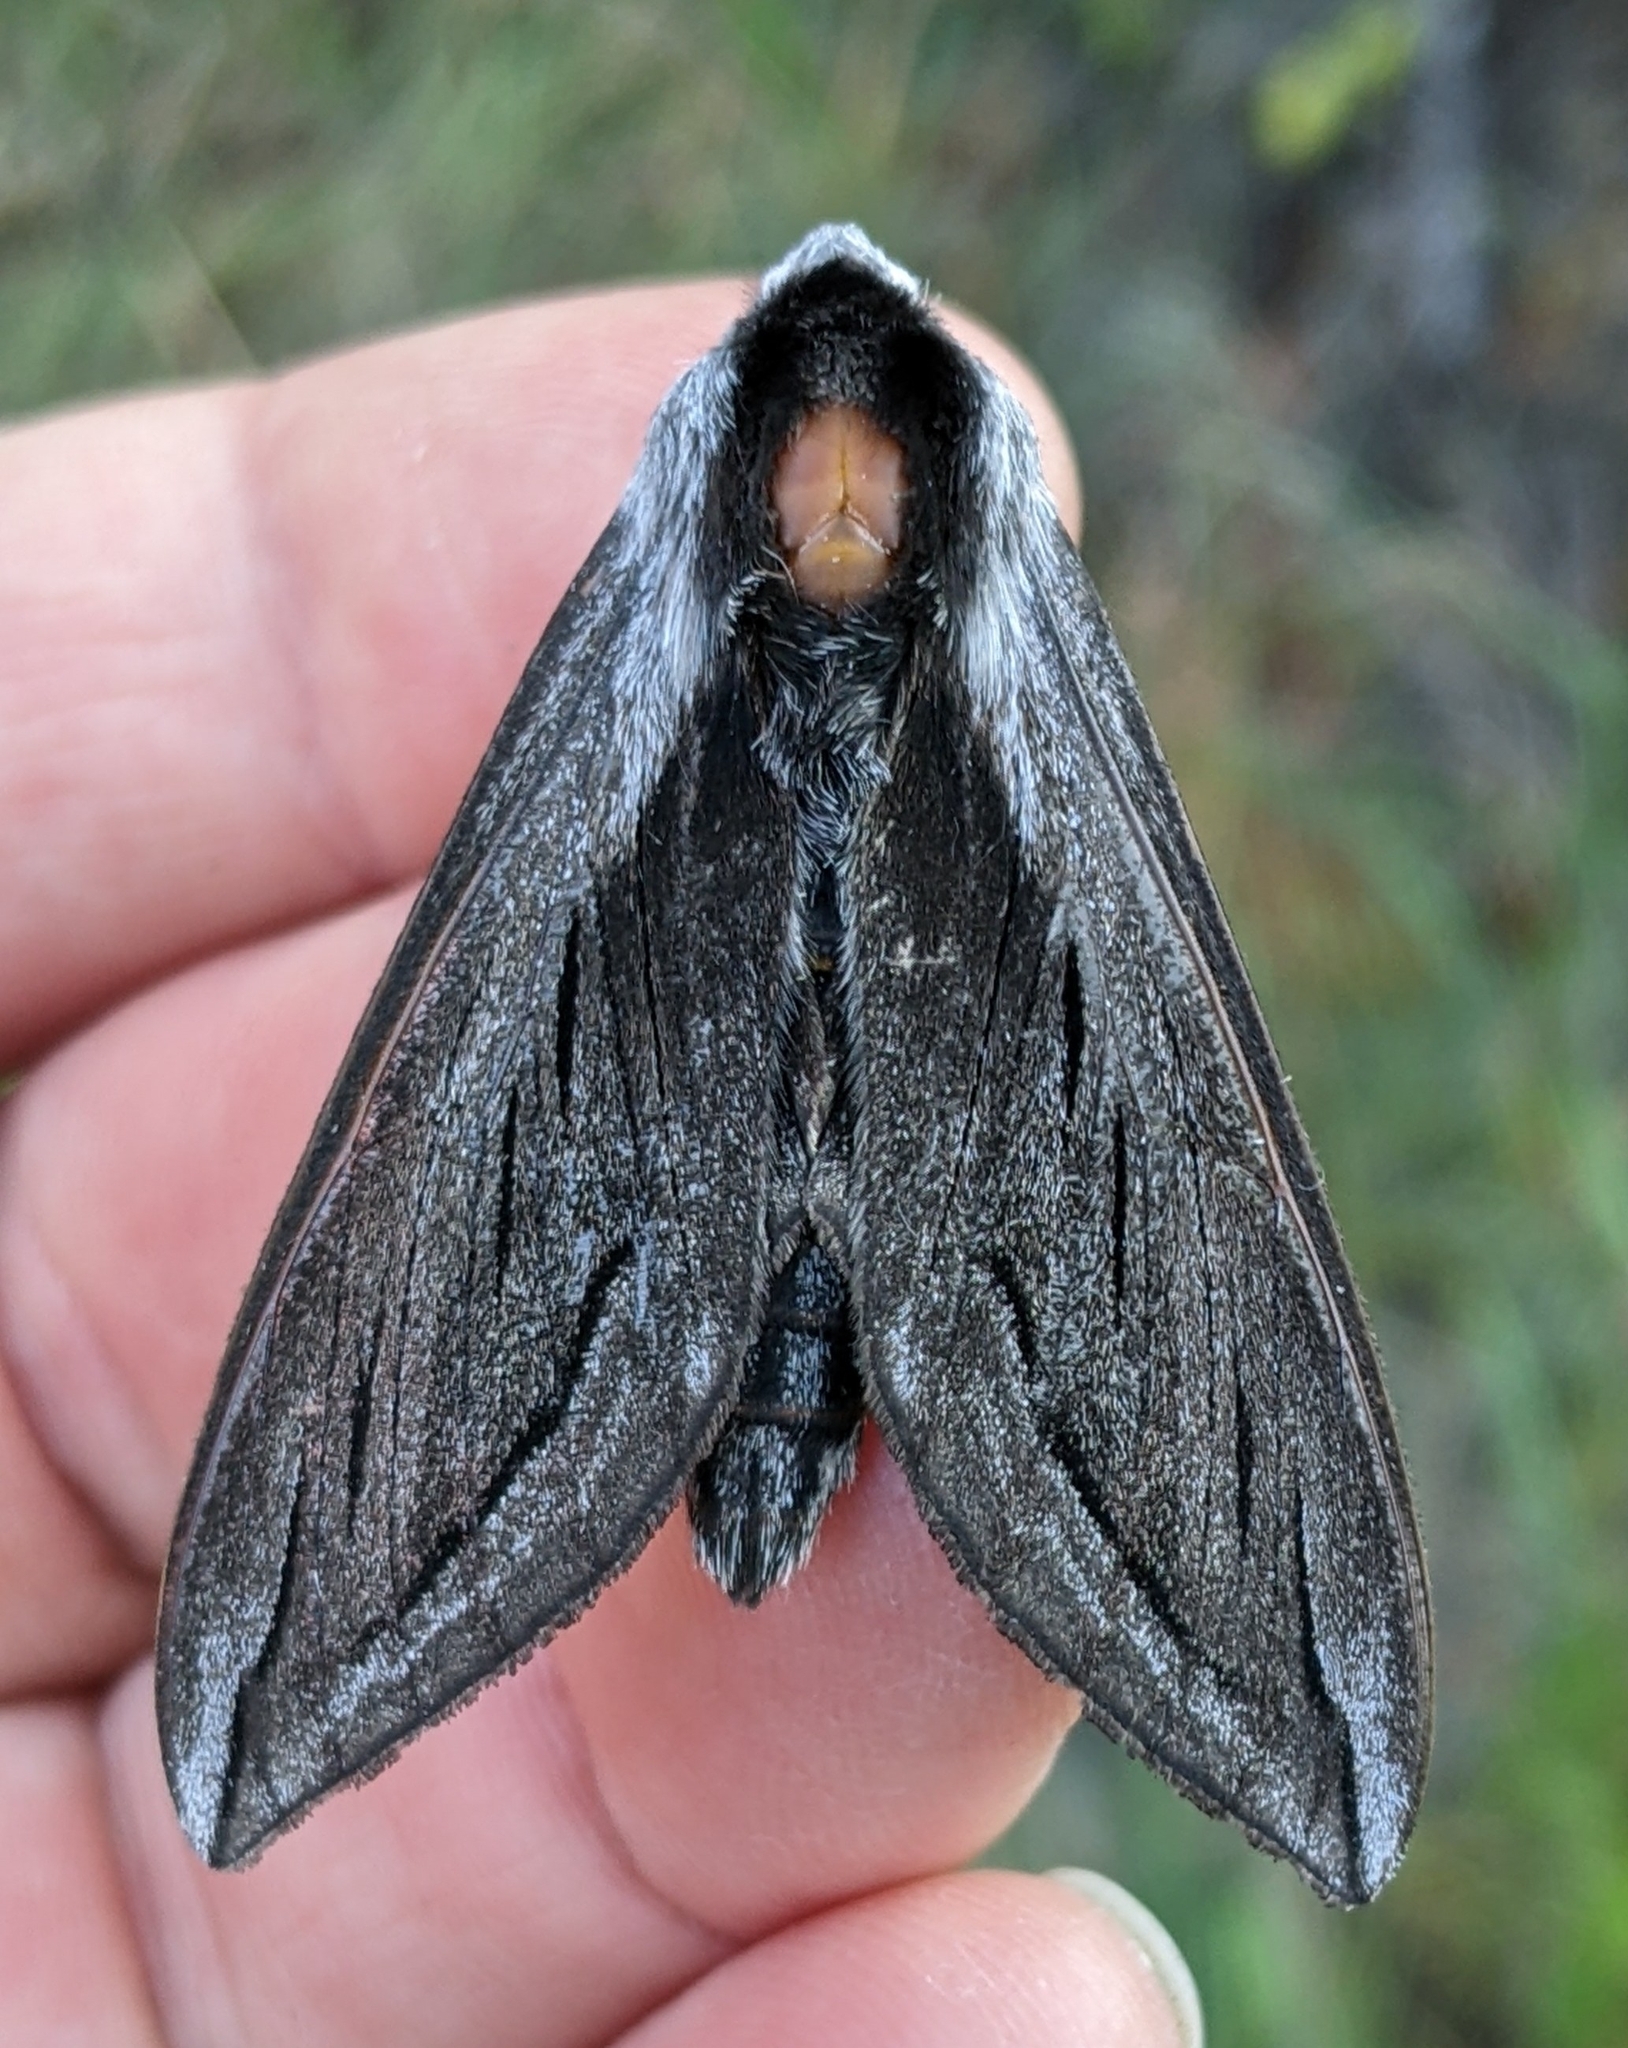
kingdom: Animalia
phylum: Arthropoda
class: Insecta
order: Lepidoptera
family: Sphingidae
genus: Sphinx
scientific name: Sphinx vashti
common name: Snowberry sphinx
